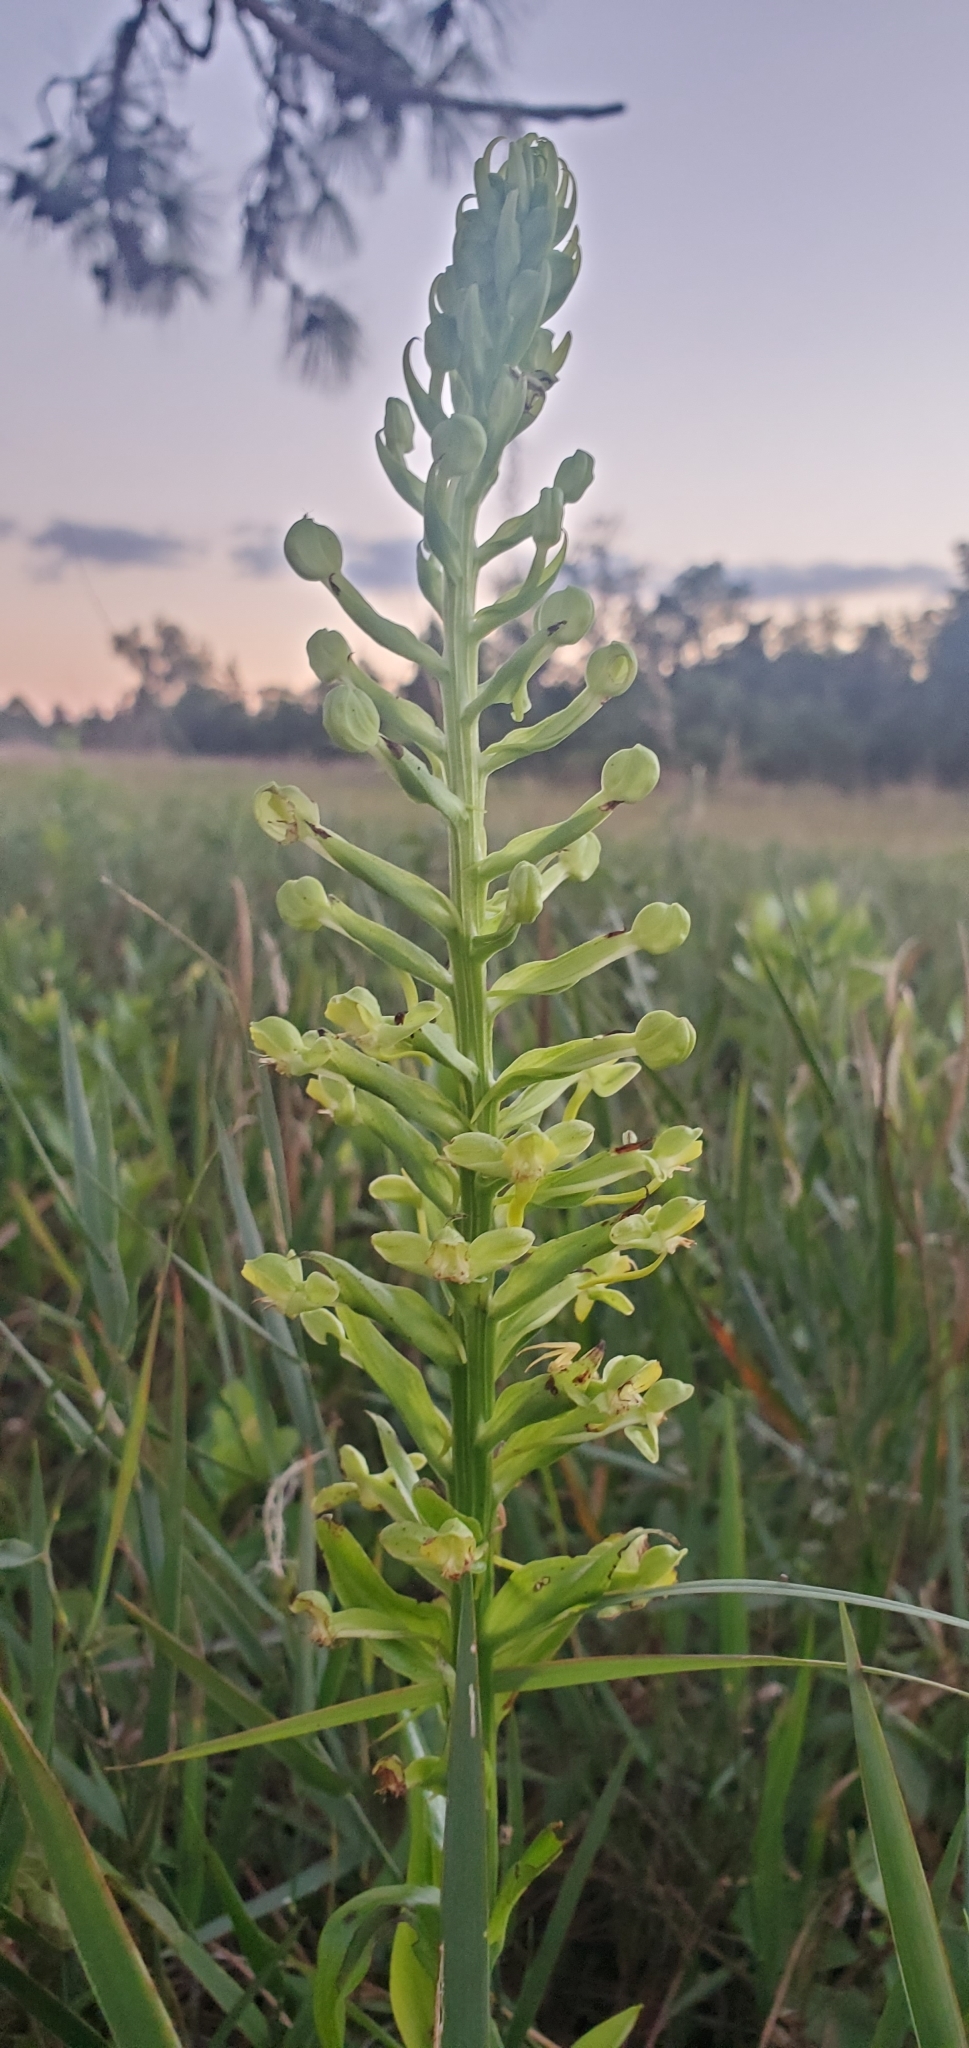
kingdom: Plantae
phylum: Tracheophyta
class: Liliopsida
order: Asparagales
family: Orchidaceae
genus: Habenaria
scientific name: Habenaria floribunda
